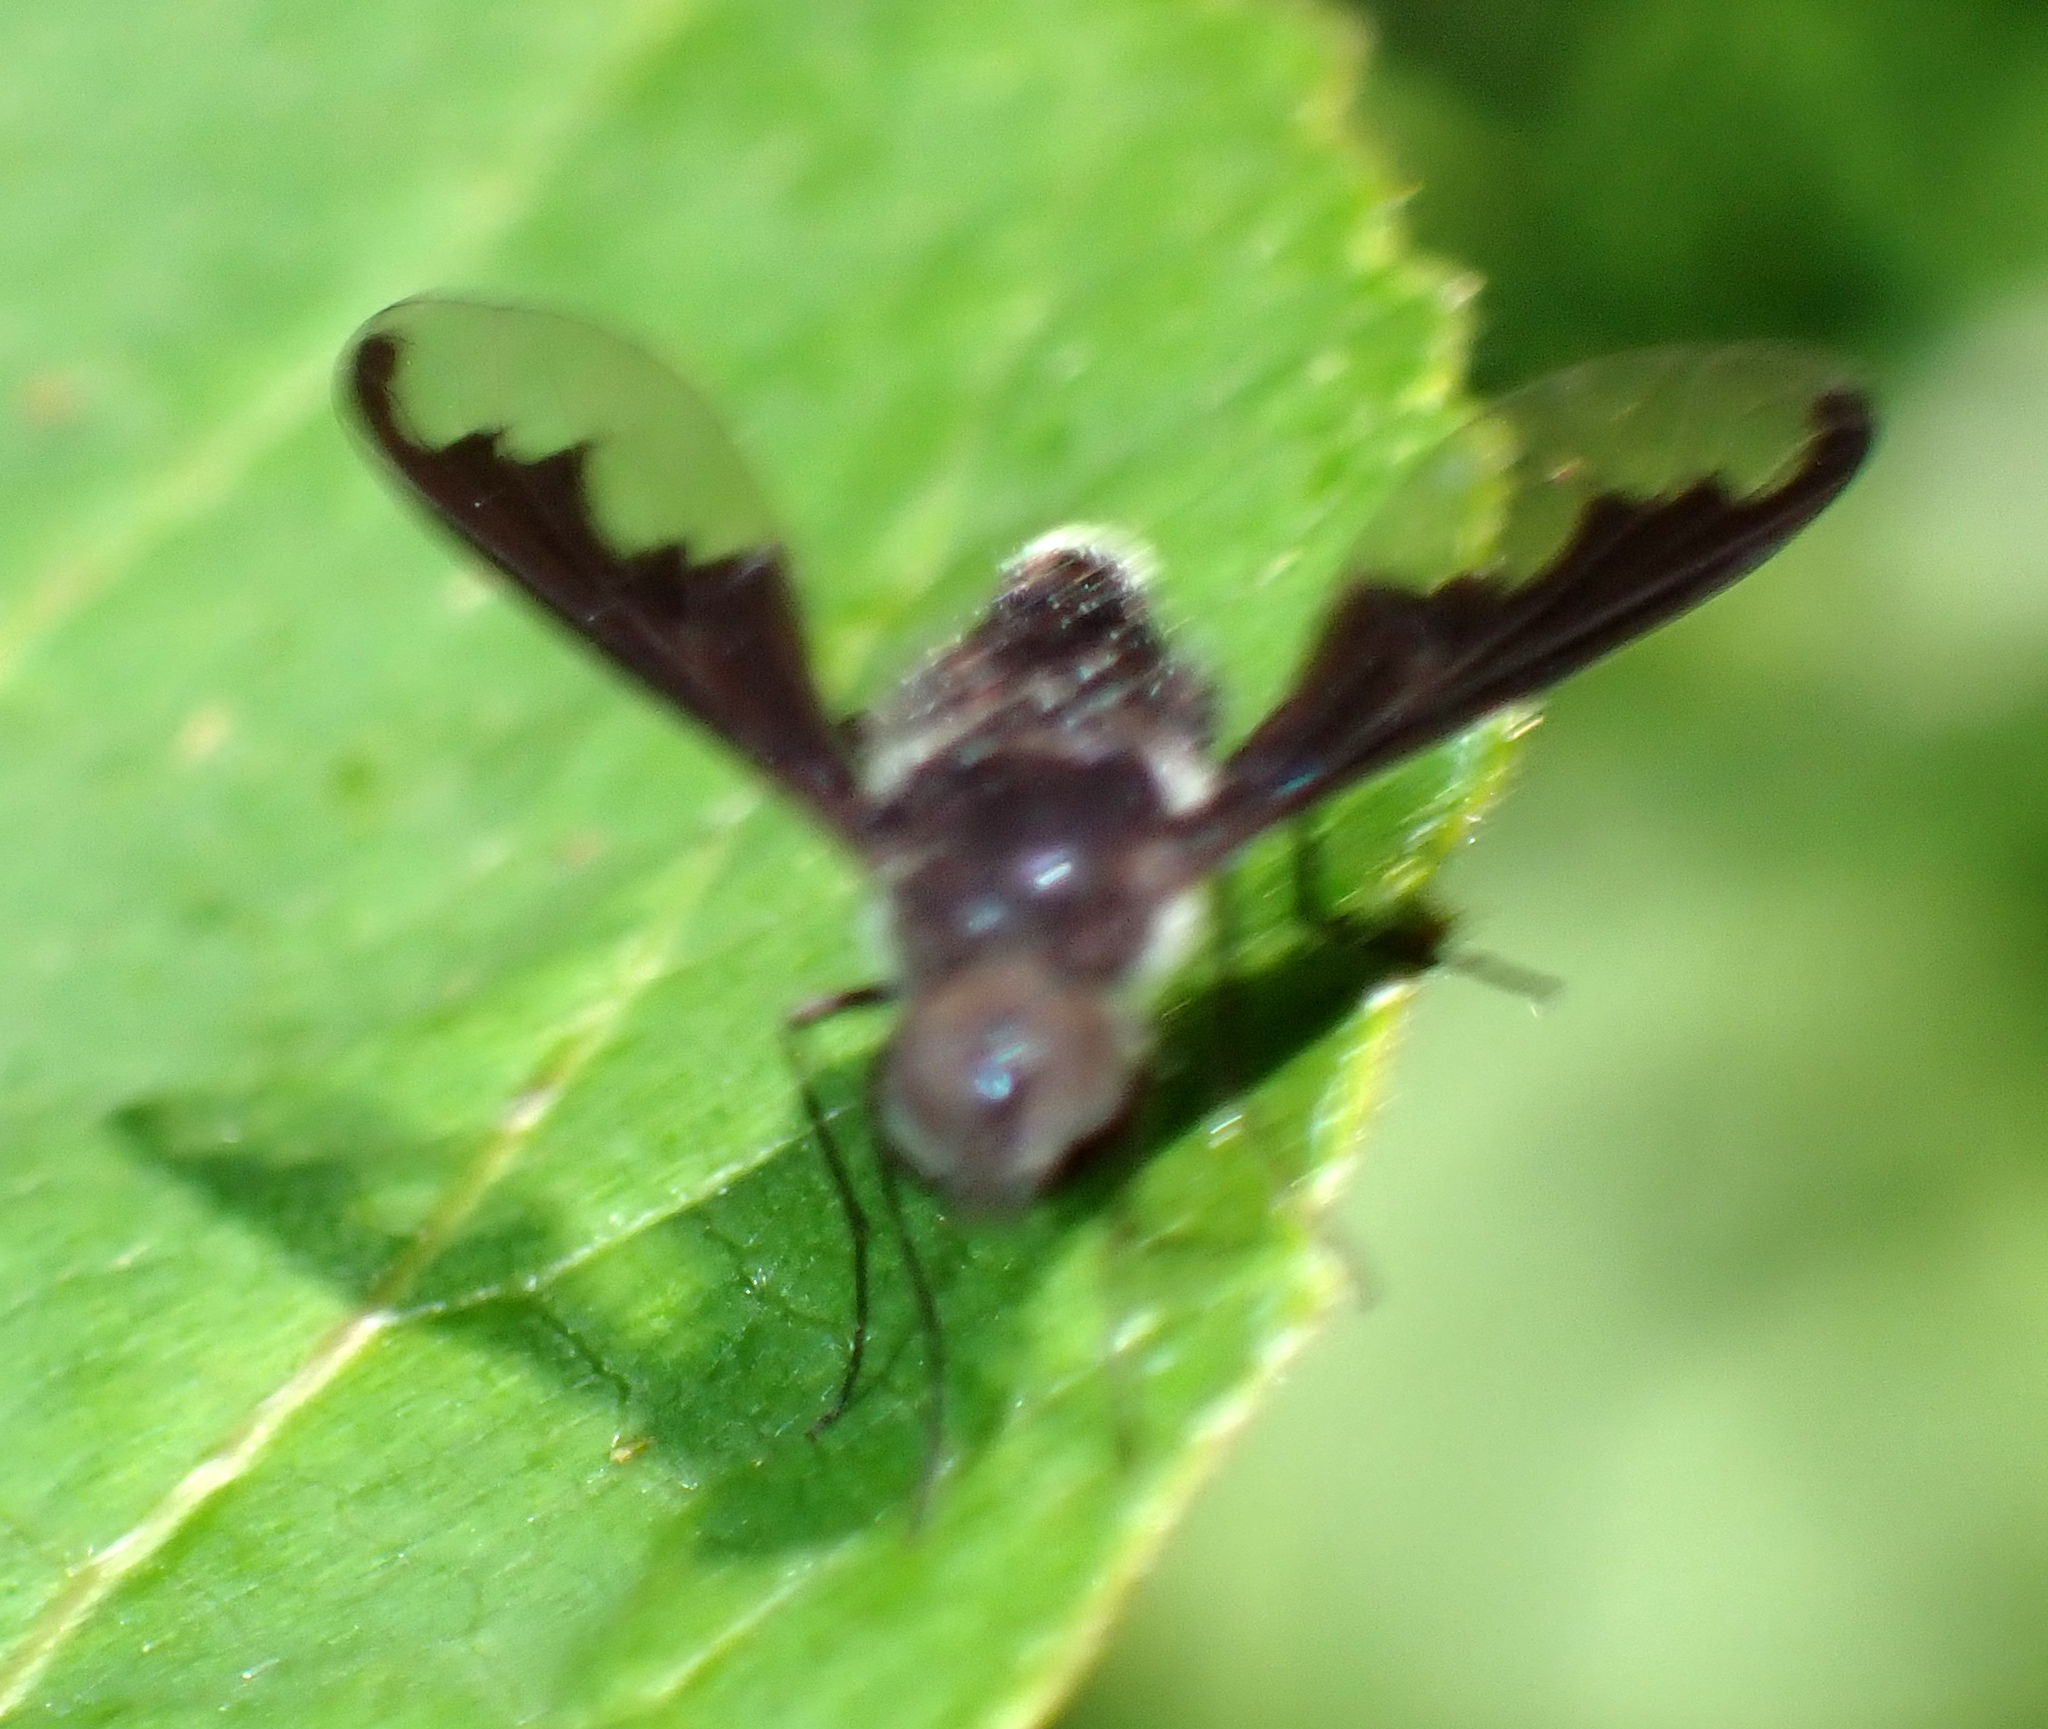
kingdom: Animalia
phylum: Arthropoda
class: Insecta
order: Diptera
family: Bombyliidae
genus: Anthrax
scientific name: Anthrax argyropygus
